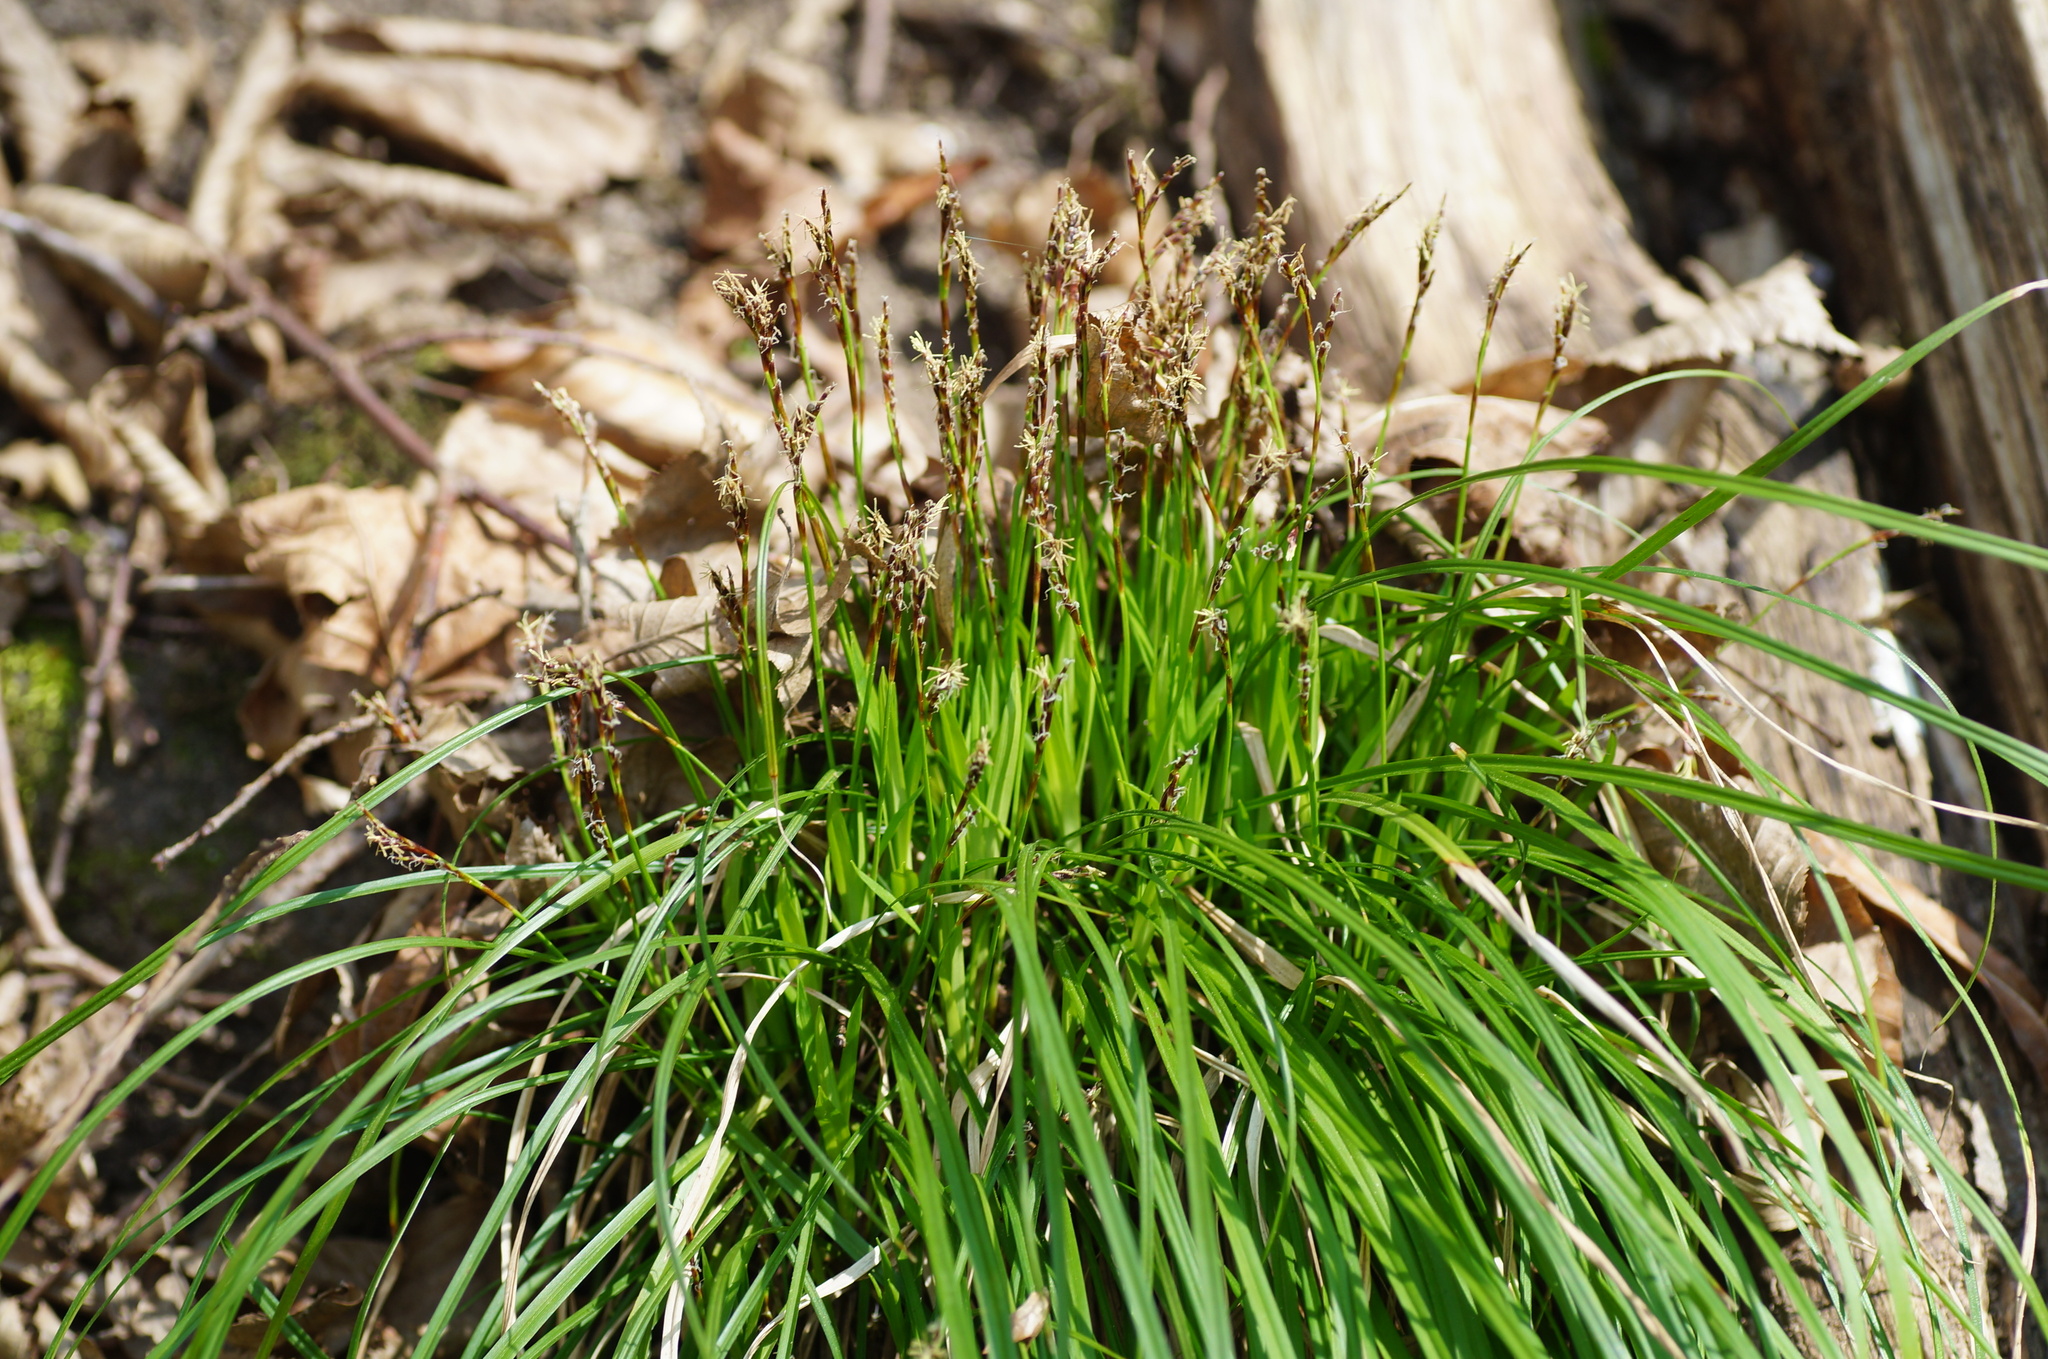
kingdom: Plantae
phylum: Tracheophyta
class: Liliopsida
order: Poales
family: Cyperaceae
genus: Carex
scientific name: Carex digitata
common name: Fingered sedge
